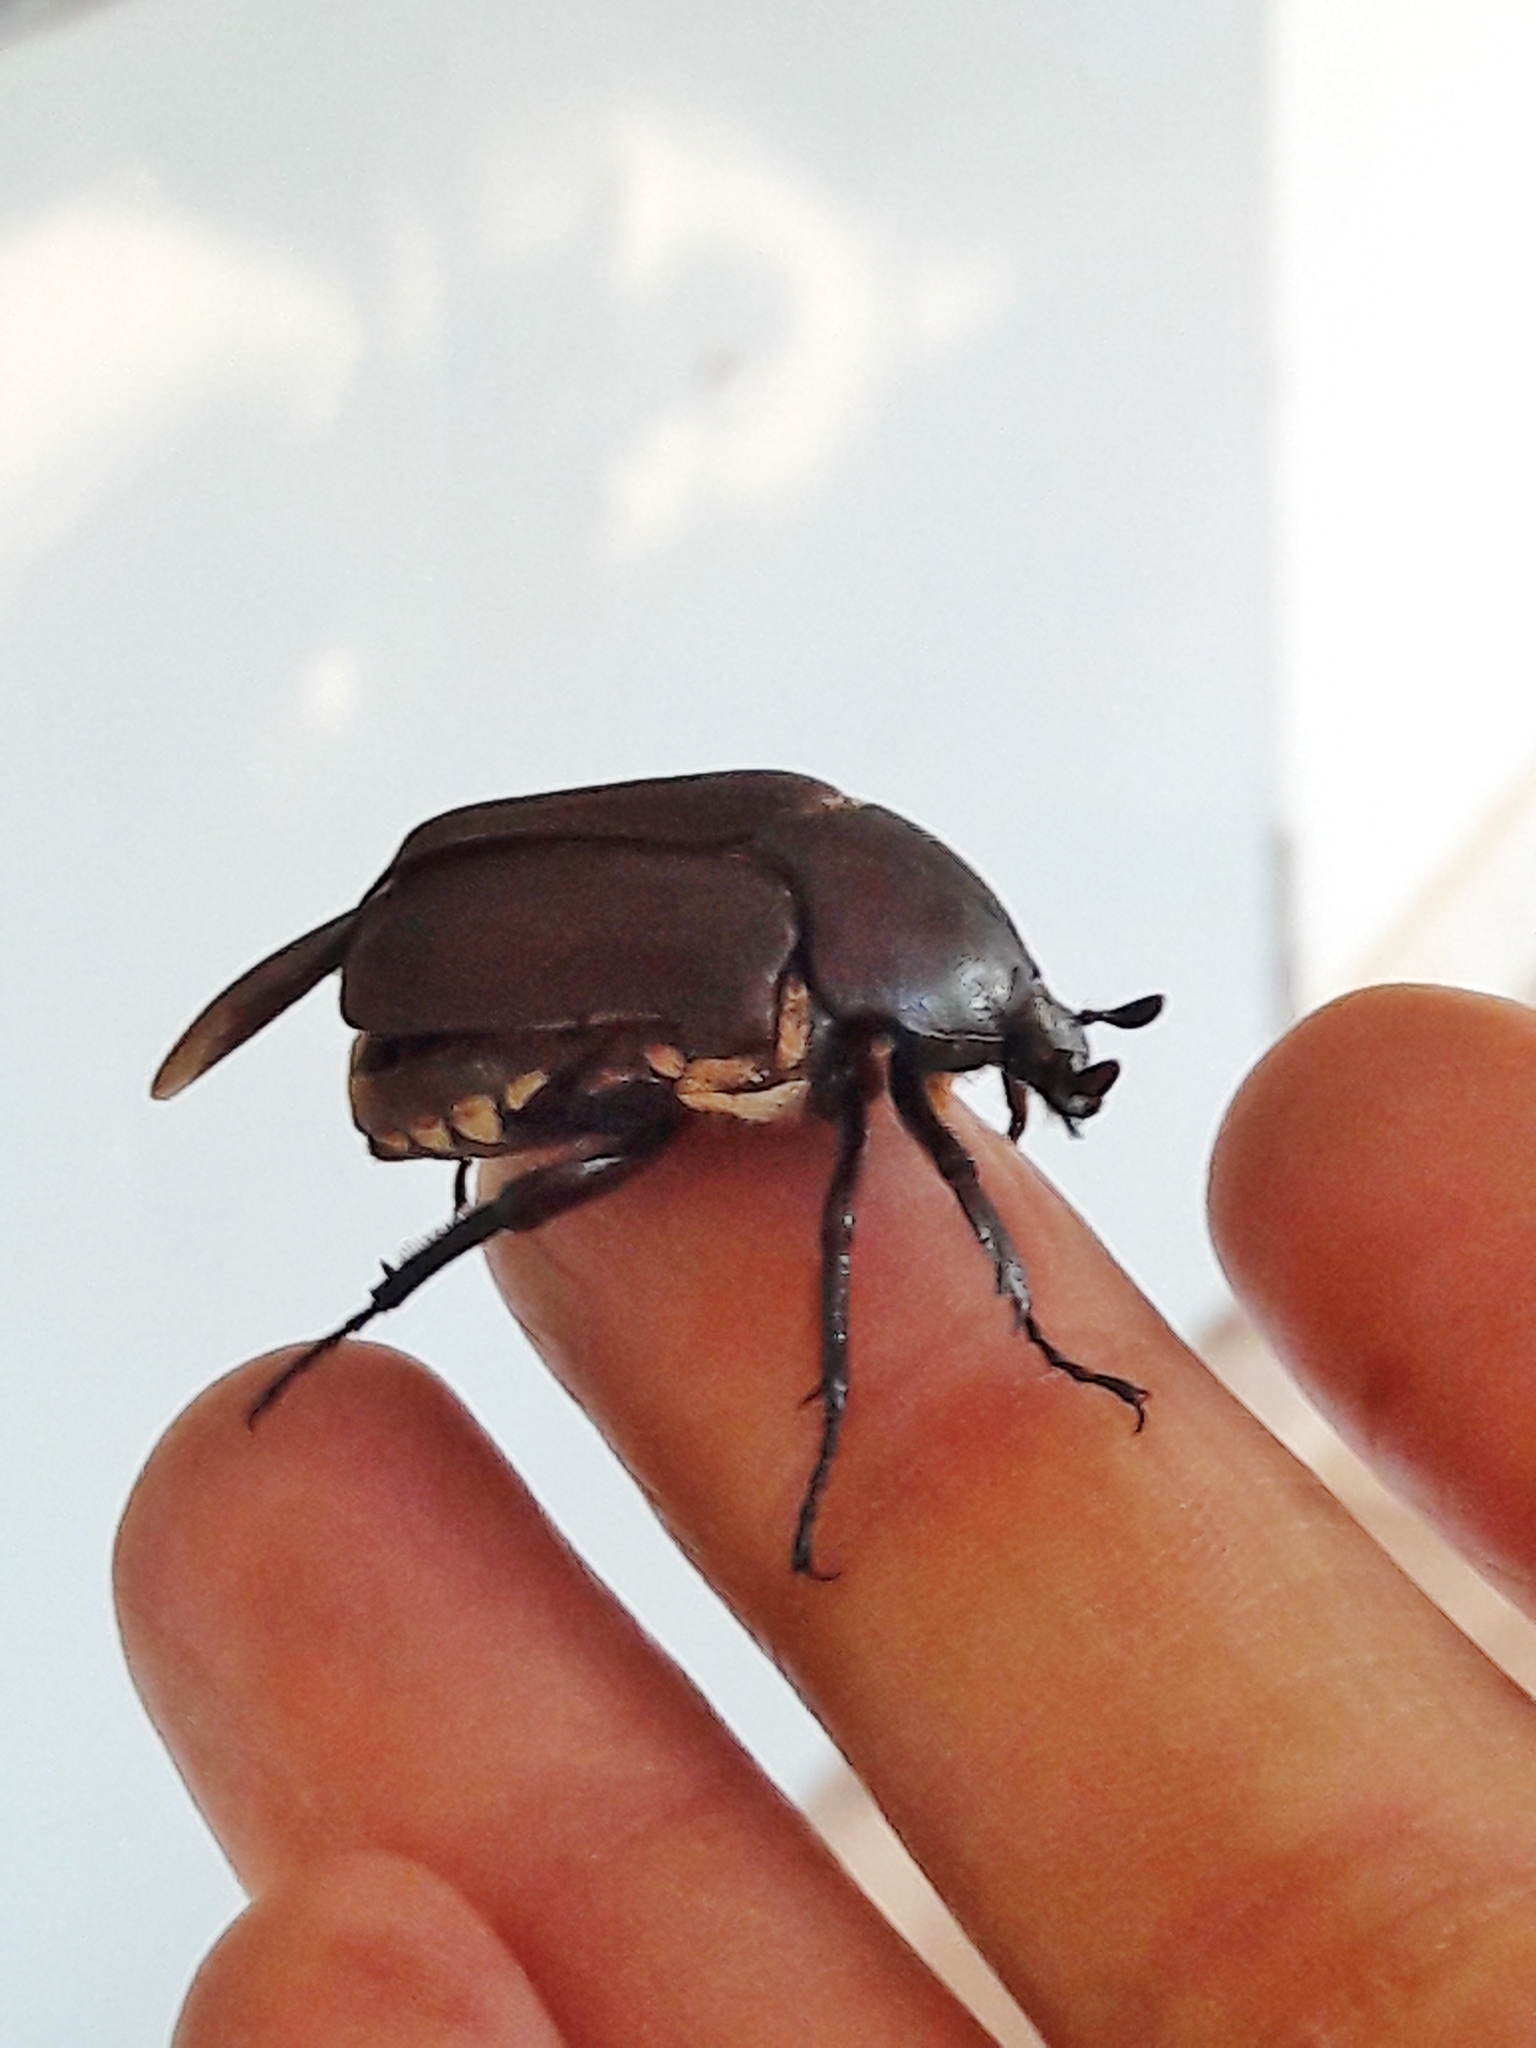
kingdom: Animalia
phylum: Arthropoda
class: Insecta
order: Coleoptera
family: Scarabaeidae
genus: Allorrhina
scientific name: Allorrhina menetriesi
